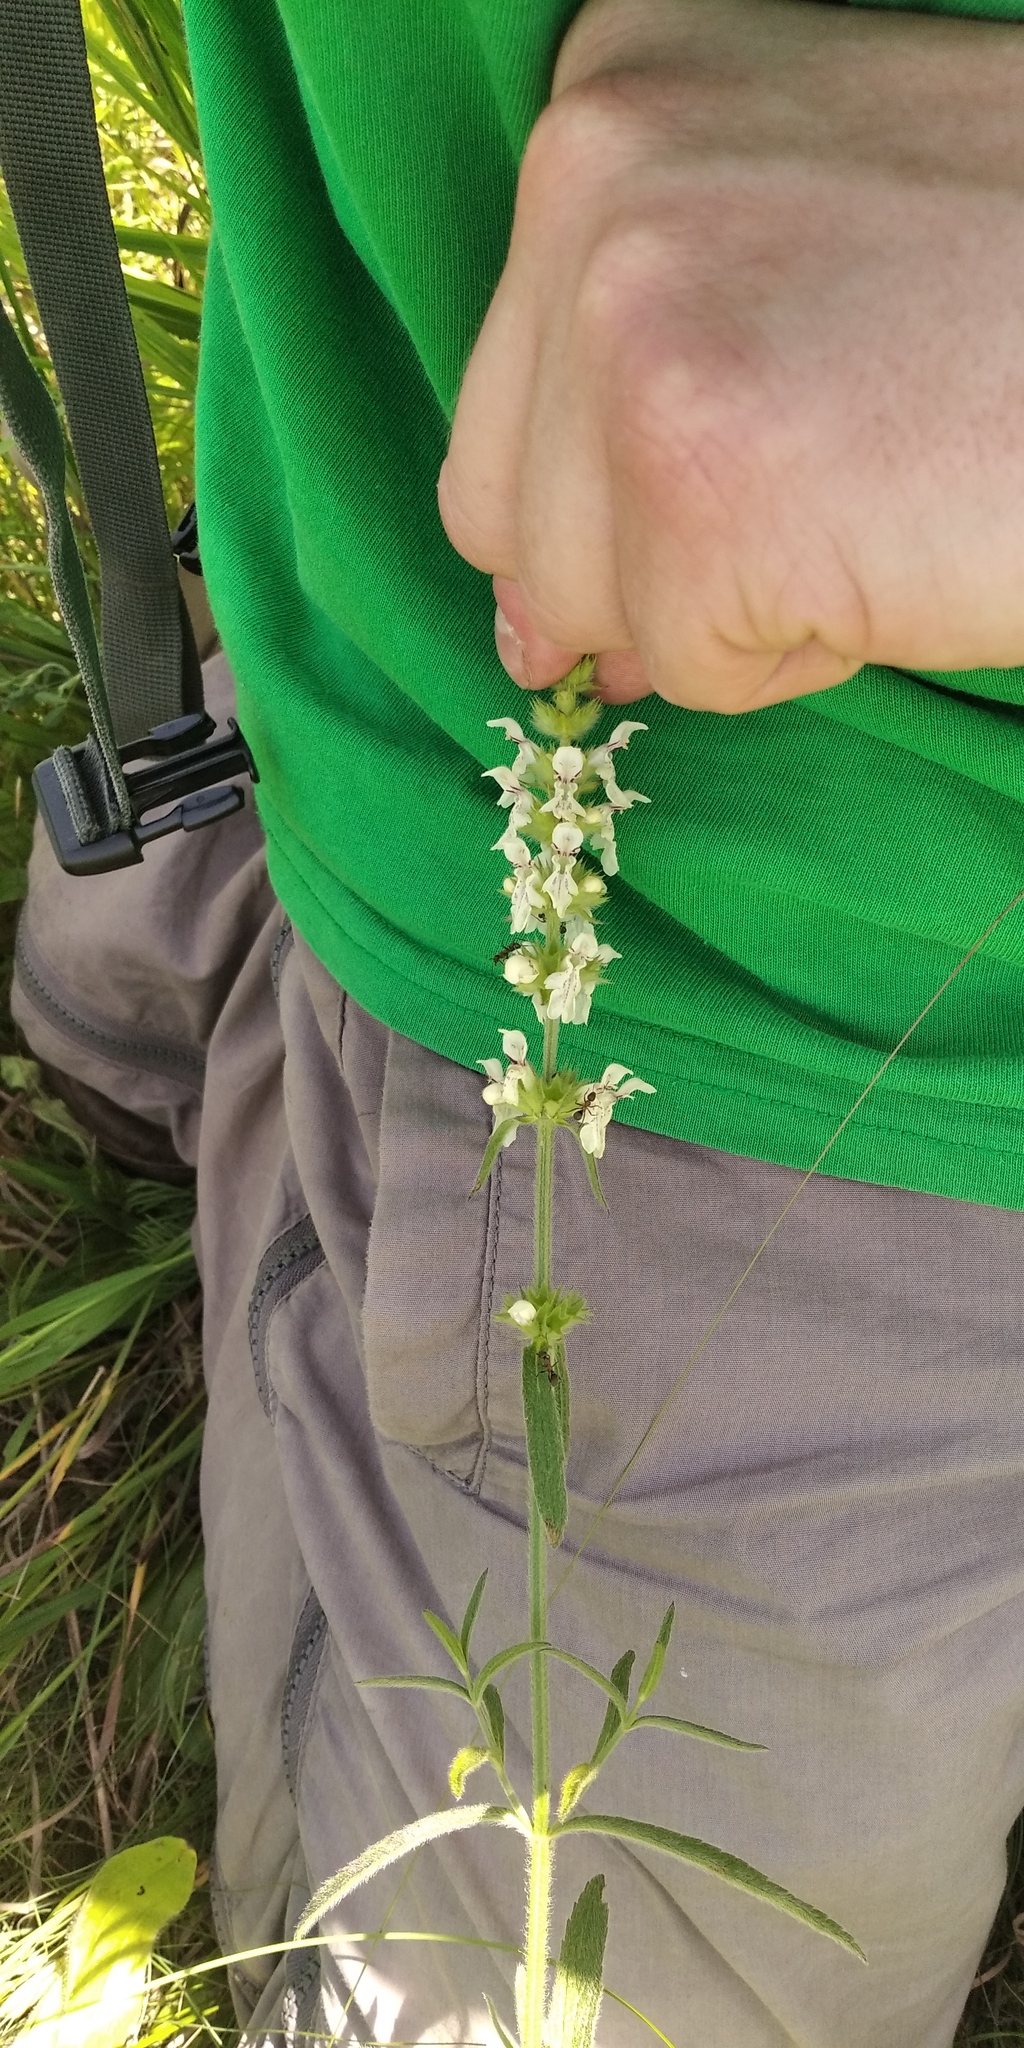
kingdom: Plantae
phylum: Tracheophyta
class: Magnoliopsida
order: Lamiales
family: Lamiaceae
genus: Stachys
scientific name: Stachys recta
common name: Perennial yellow-woundwort
